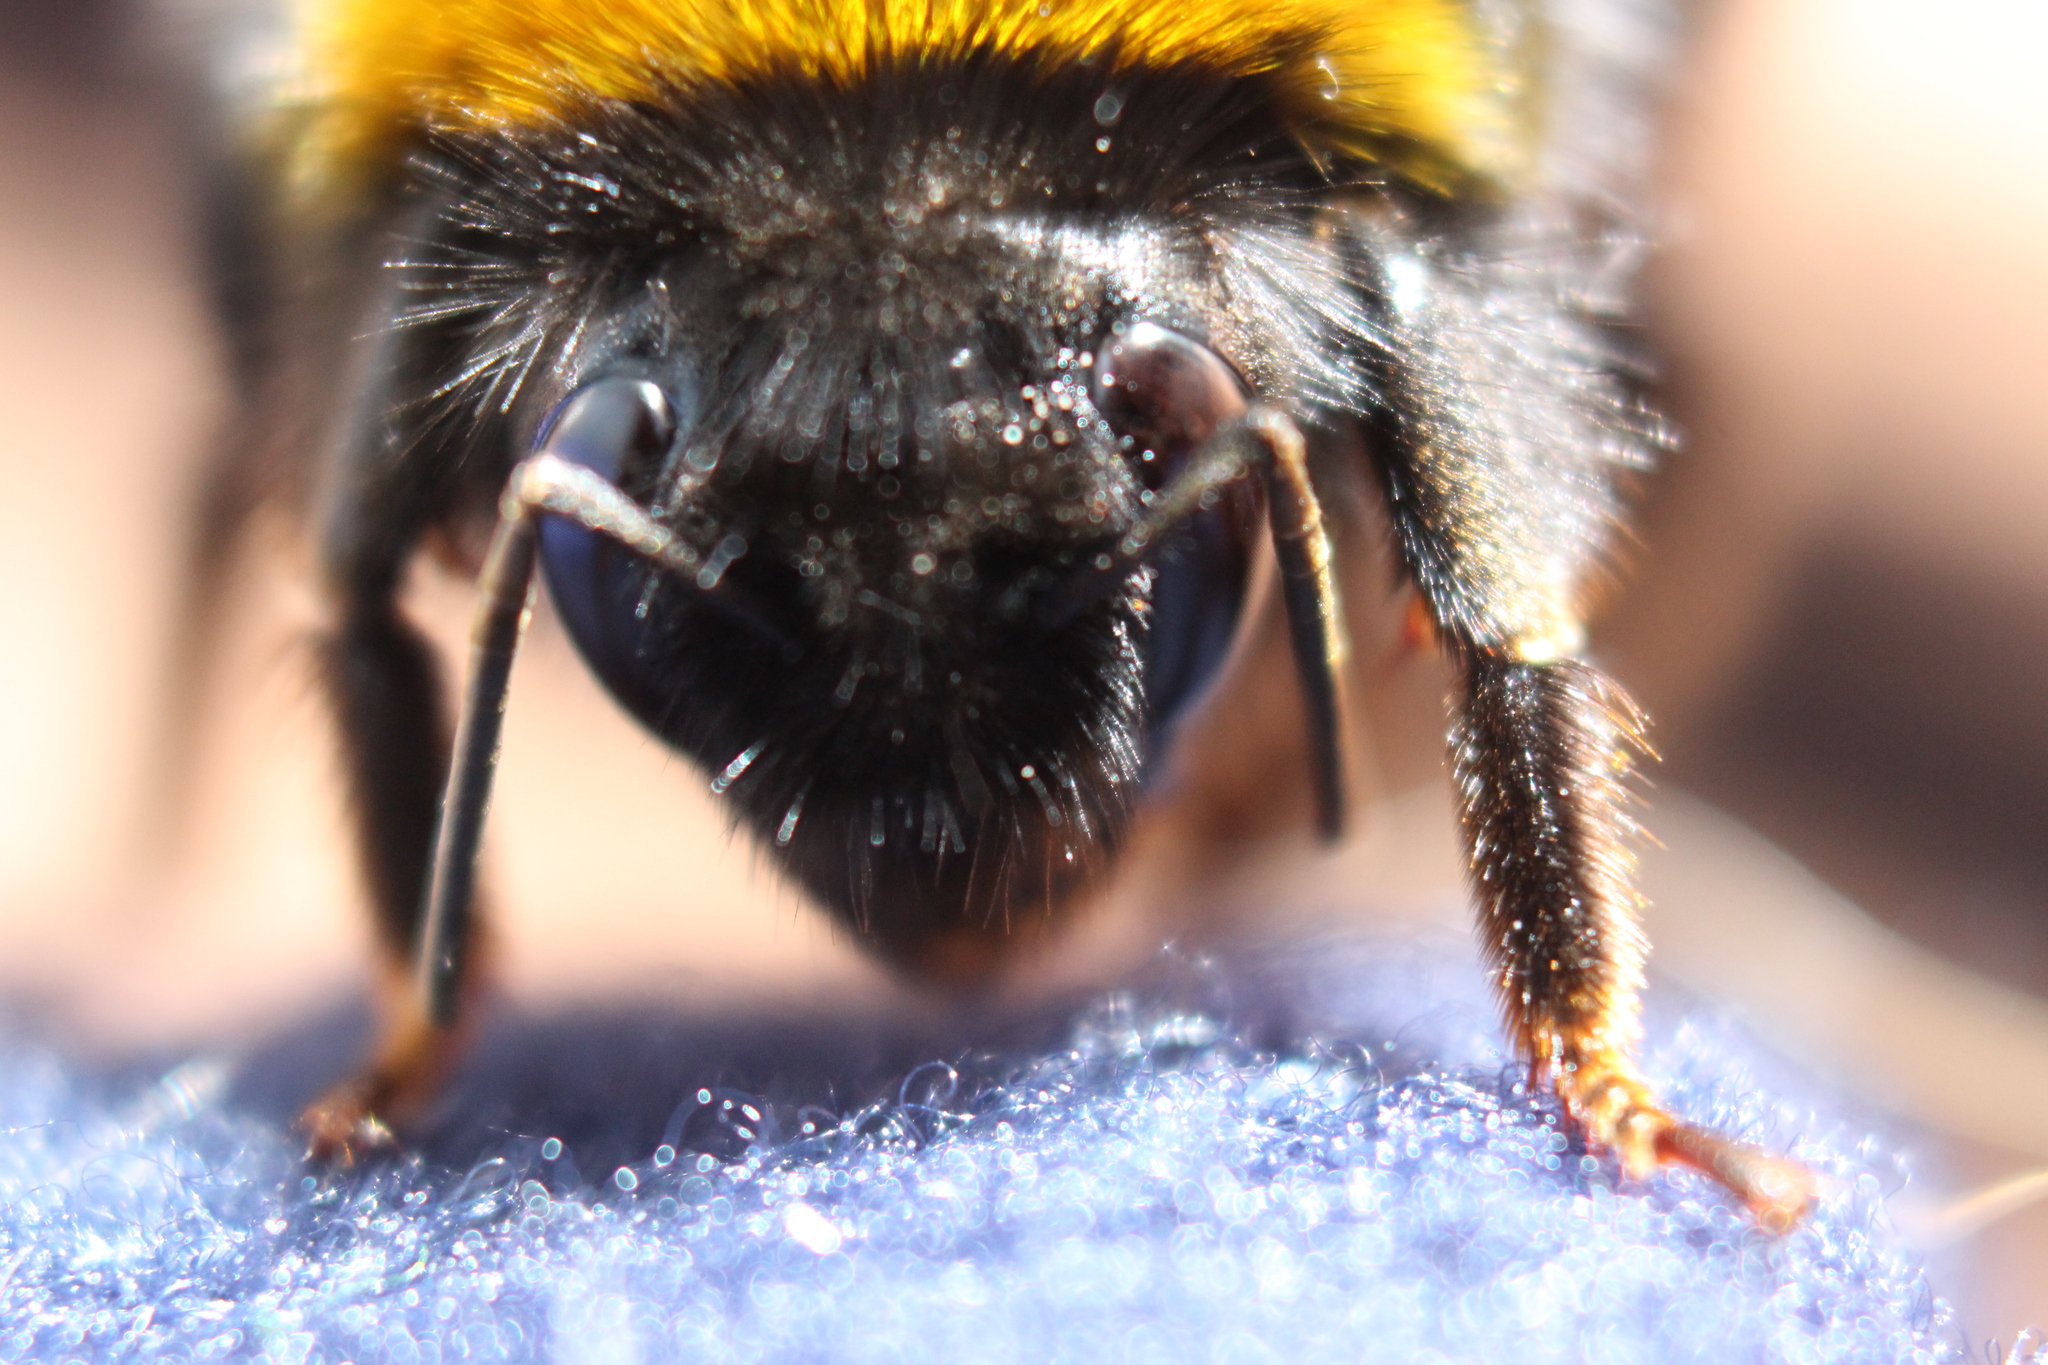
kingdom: Animalia
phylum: Arthropoda
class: Insecta
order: Hymenoptera
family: Apidae
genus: Bombus
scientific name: Bombus terrestris
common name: Buff-tailed bumblebee
